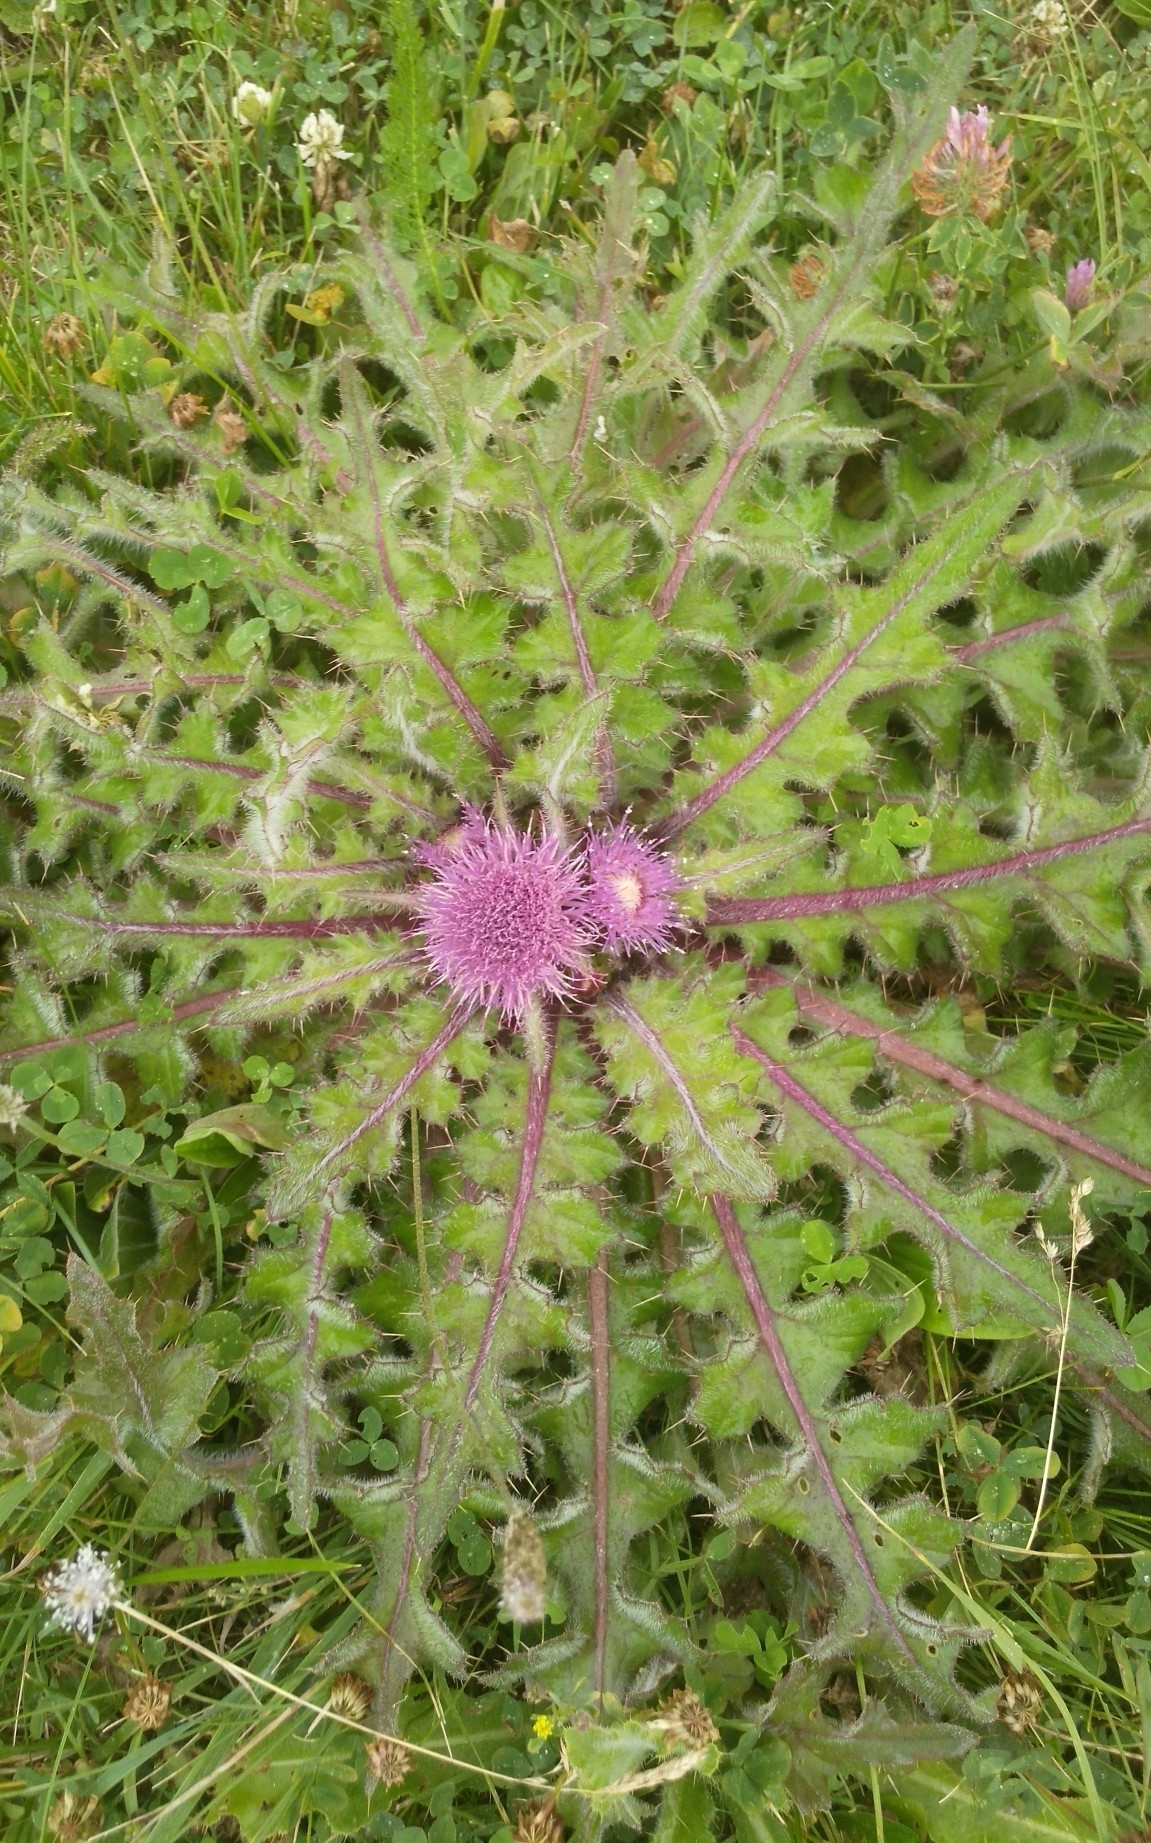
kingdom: Plantae
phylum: Tracheophyta
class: Magnoliopsida
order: Asterales
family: Asteraceae
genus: Cirsium
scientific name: Cirsium esculentum
